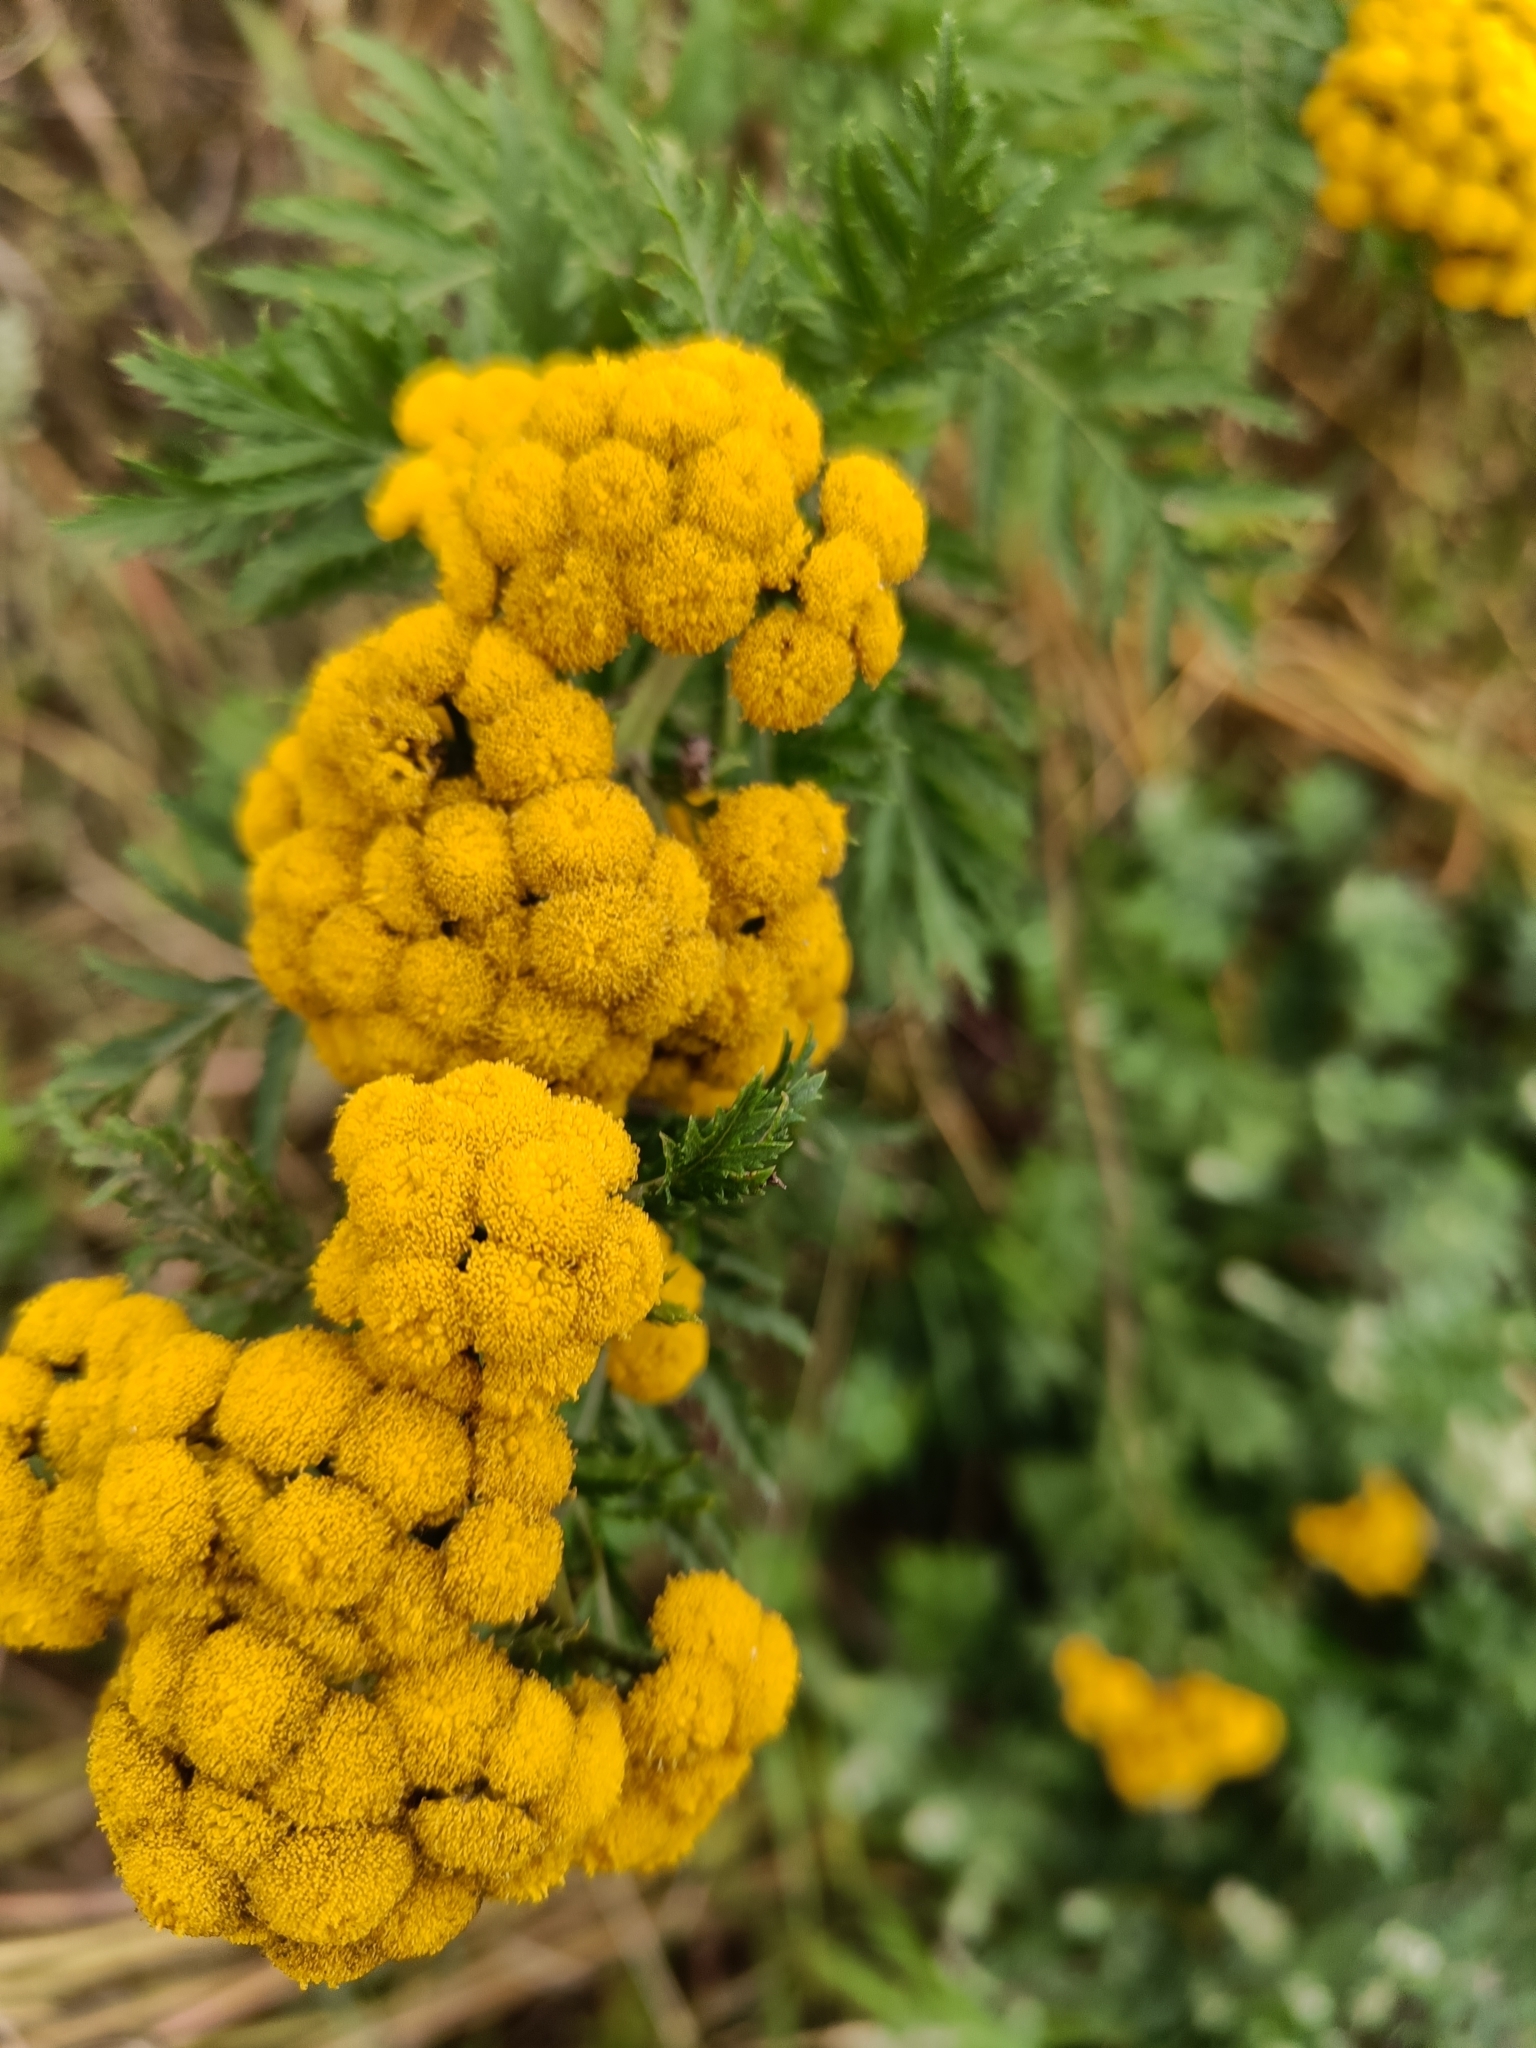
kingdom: Plantae
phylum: Tracheophyta
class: Magnoliopsida
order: Asterales
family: Asteraceae
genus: Tanacetum
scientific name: Tanacetum vulgare
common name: Common tansy
